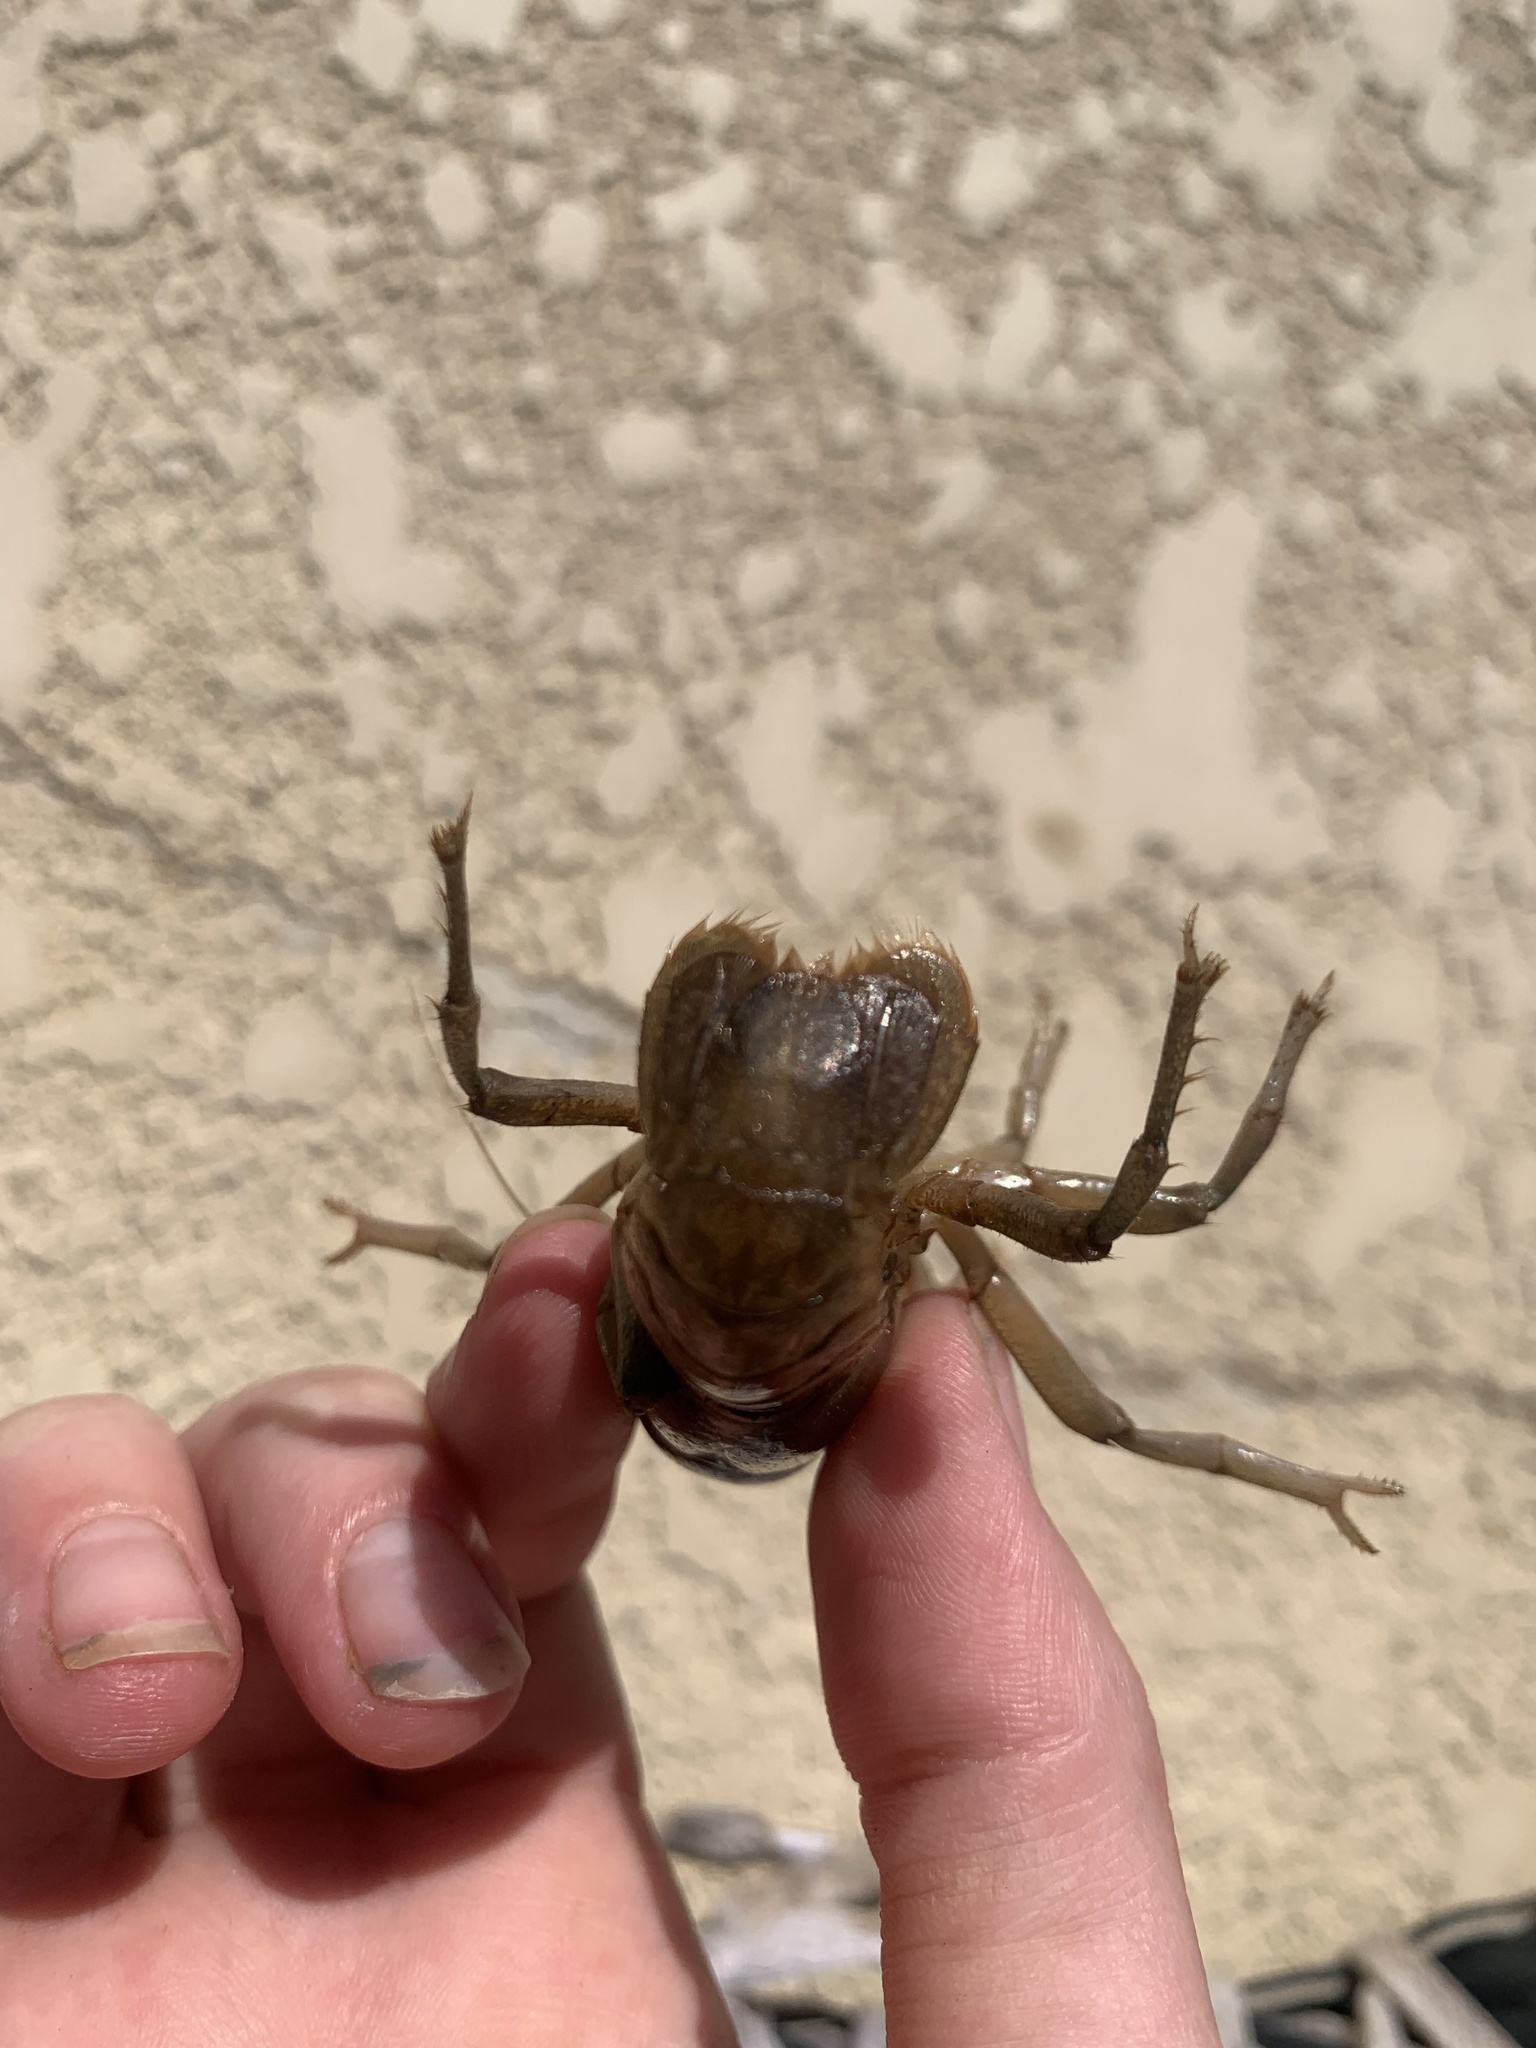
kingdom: Animalia
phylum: Arthropoda
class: Malacostraca
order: Decapoda
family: Cambaridae
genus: Fallicambarus
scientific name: Fallicambarus houstonensis
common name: Houston burrowing crayfish
